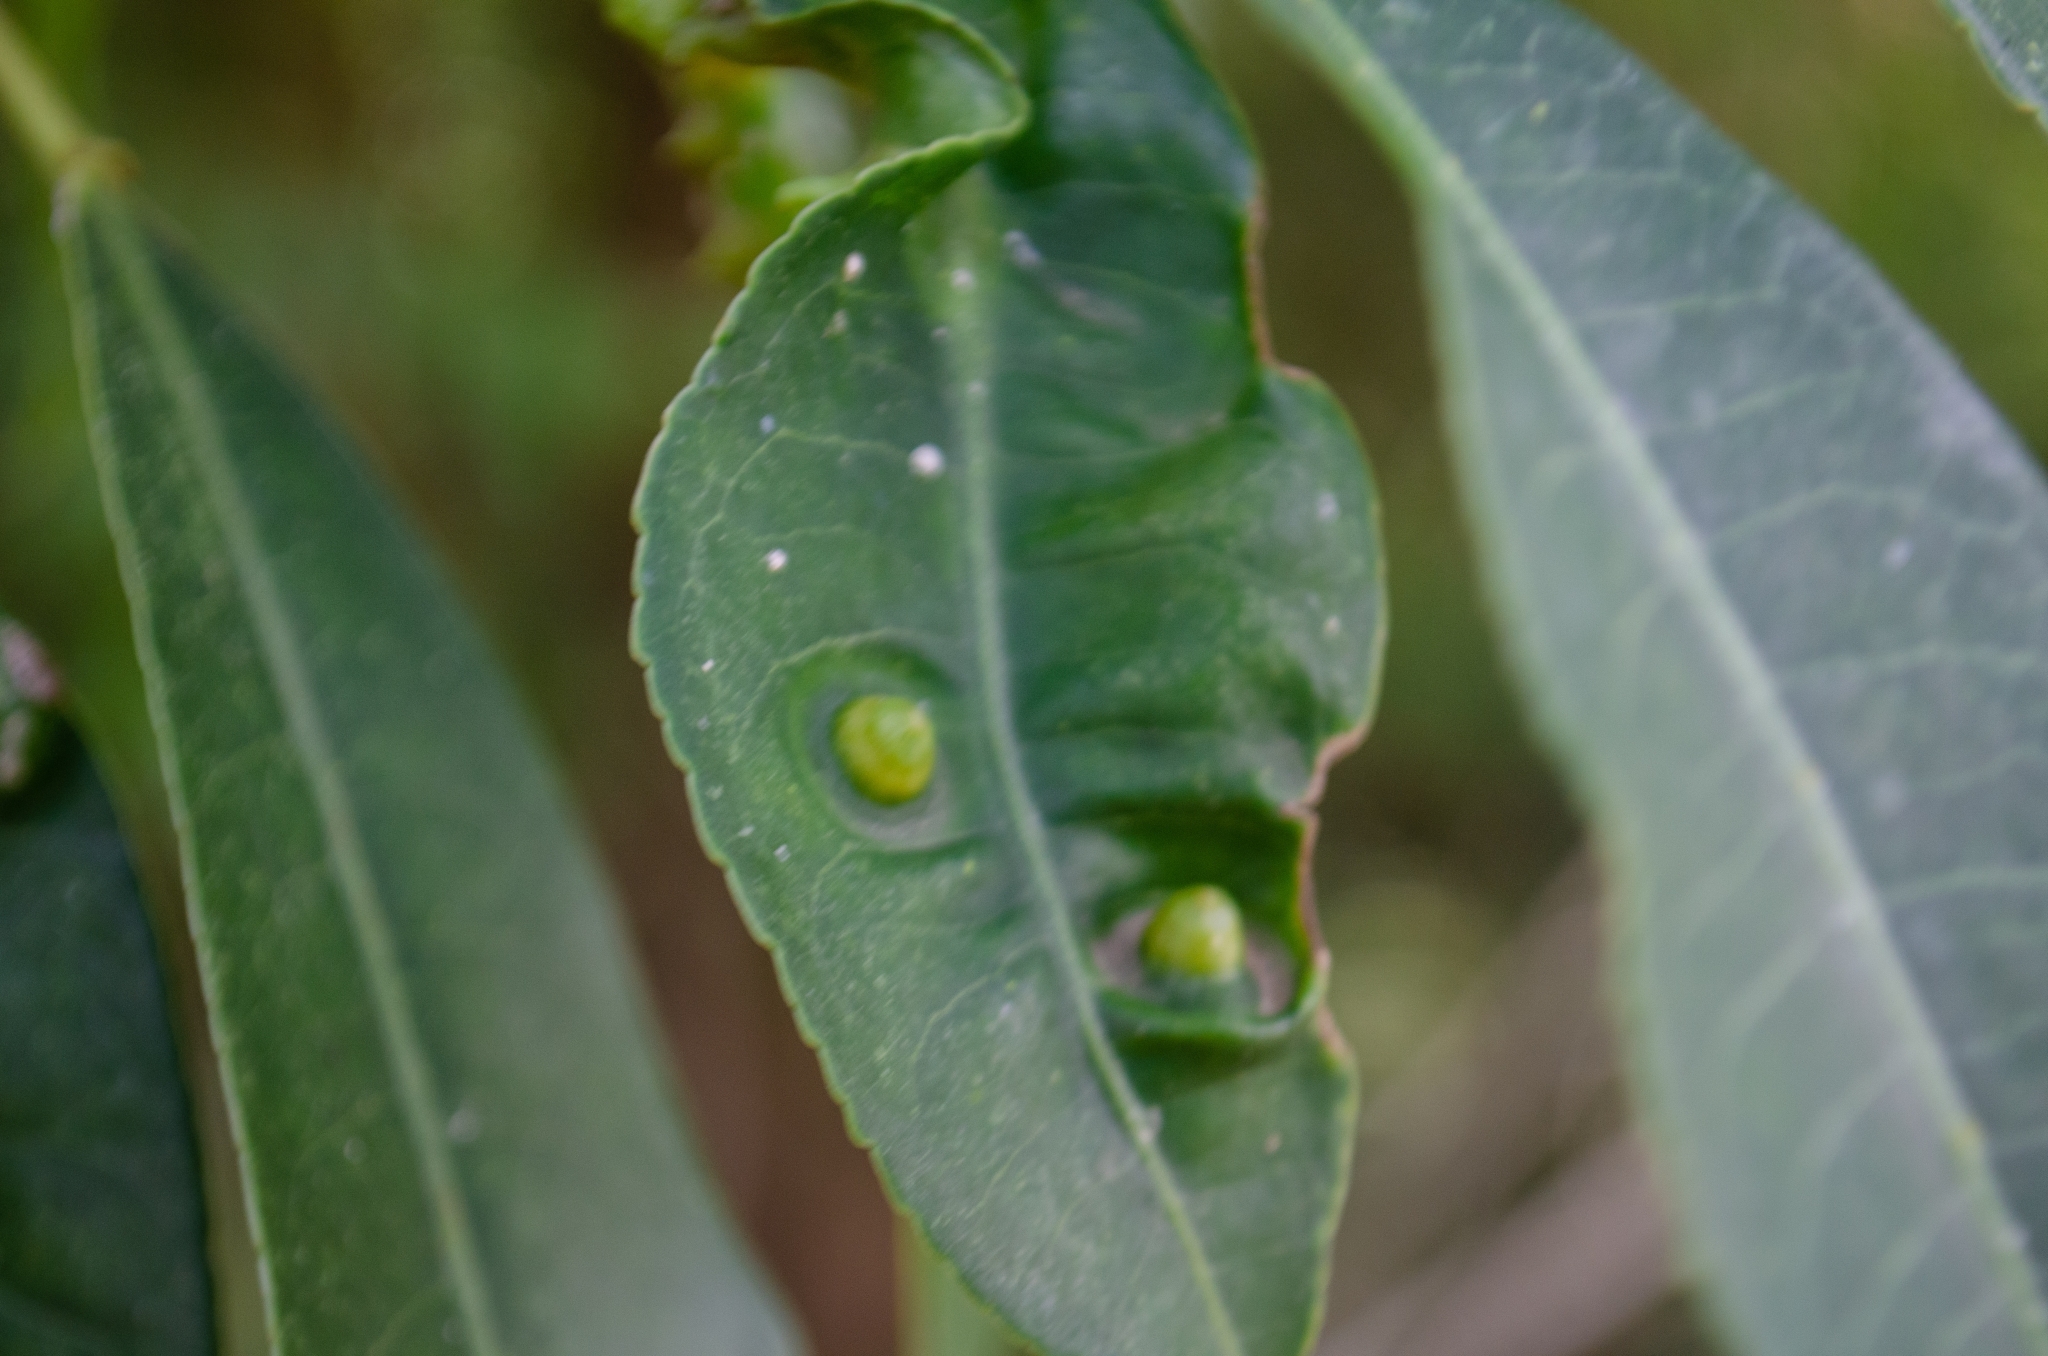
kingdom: Animalia
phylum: Arthropoda
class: Insecta
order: Hemiptera
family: Triozidae
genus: Neolithus
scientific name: Neolithus fasciatus
